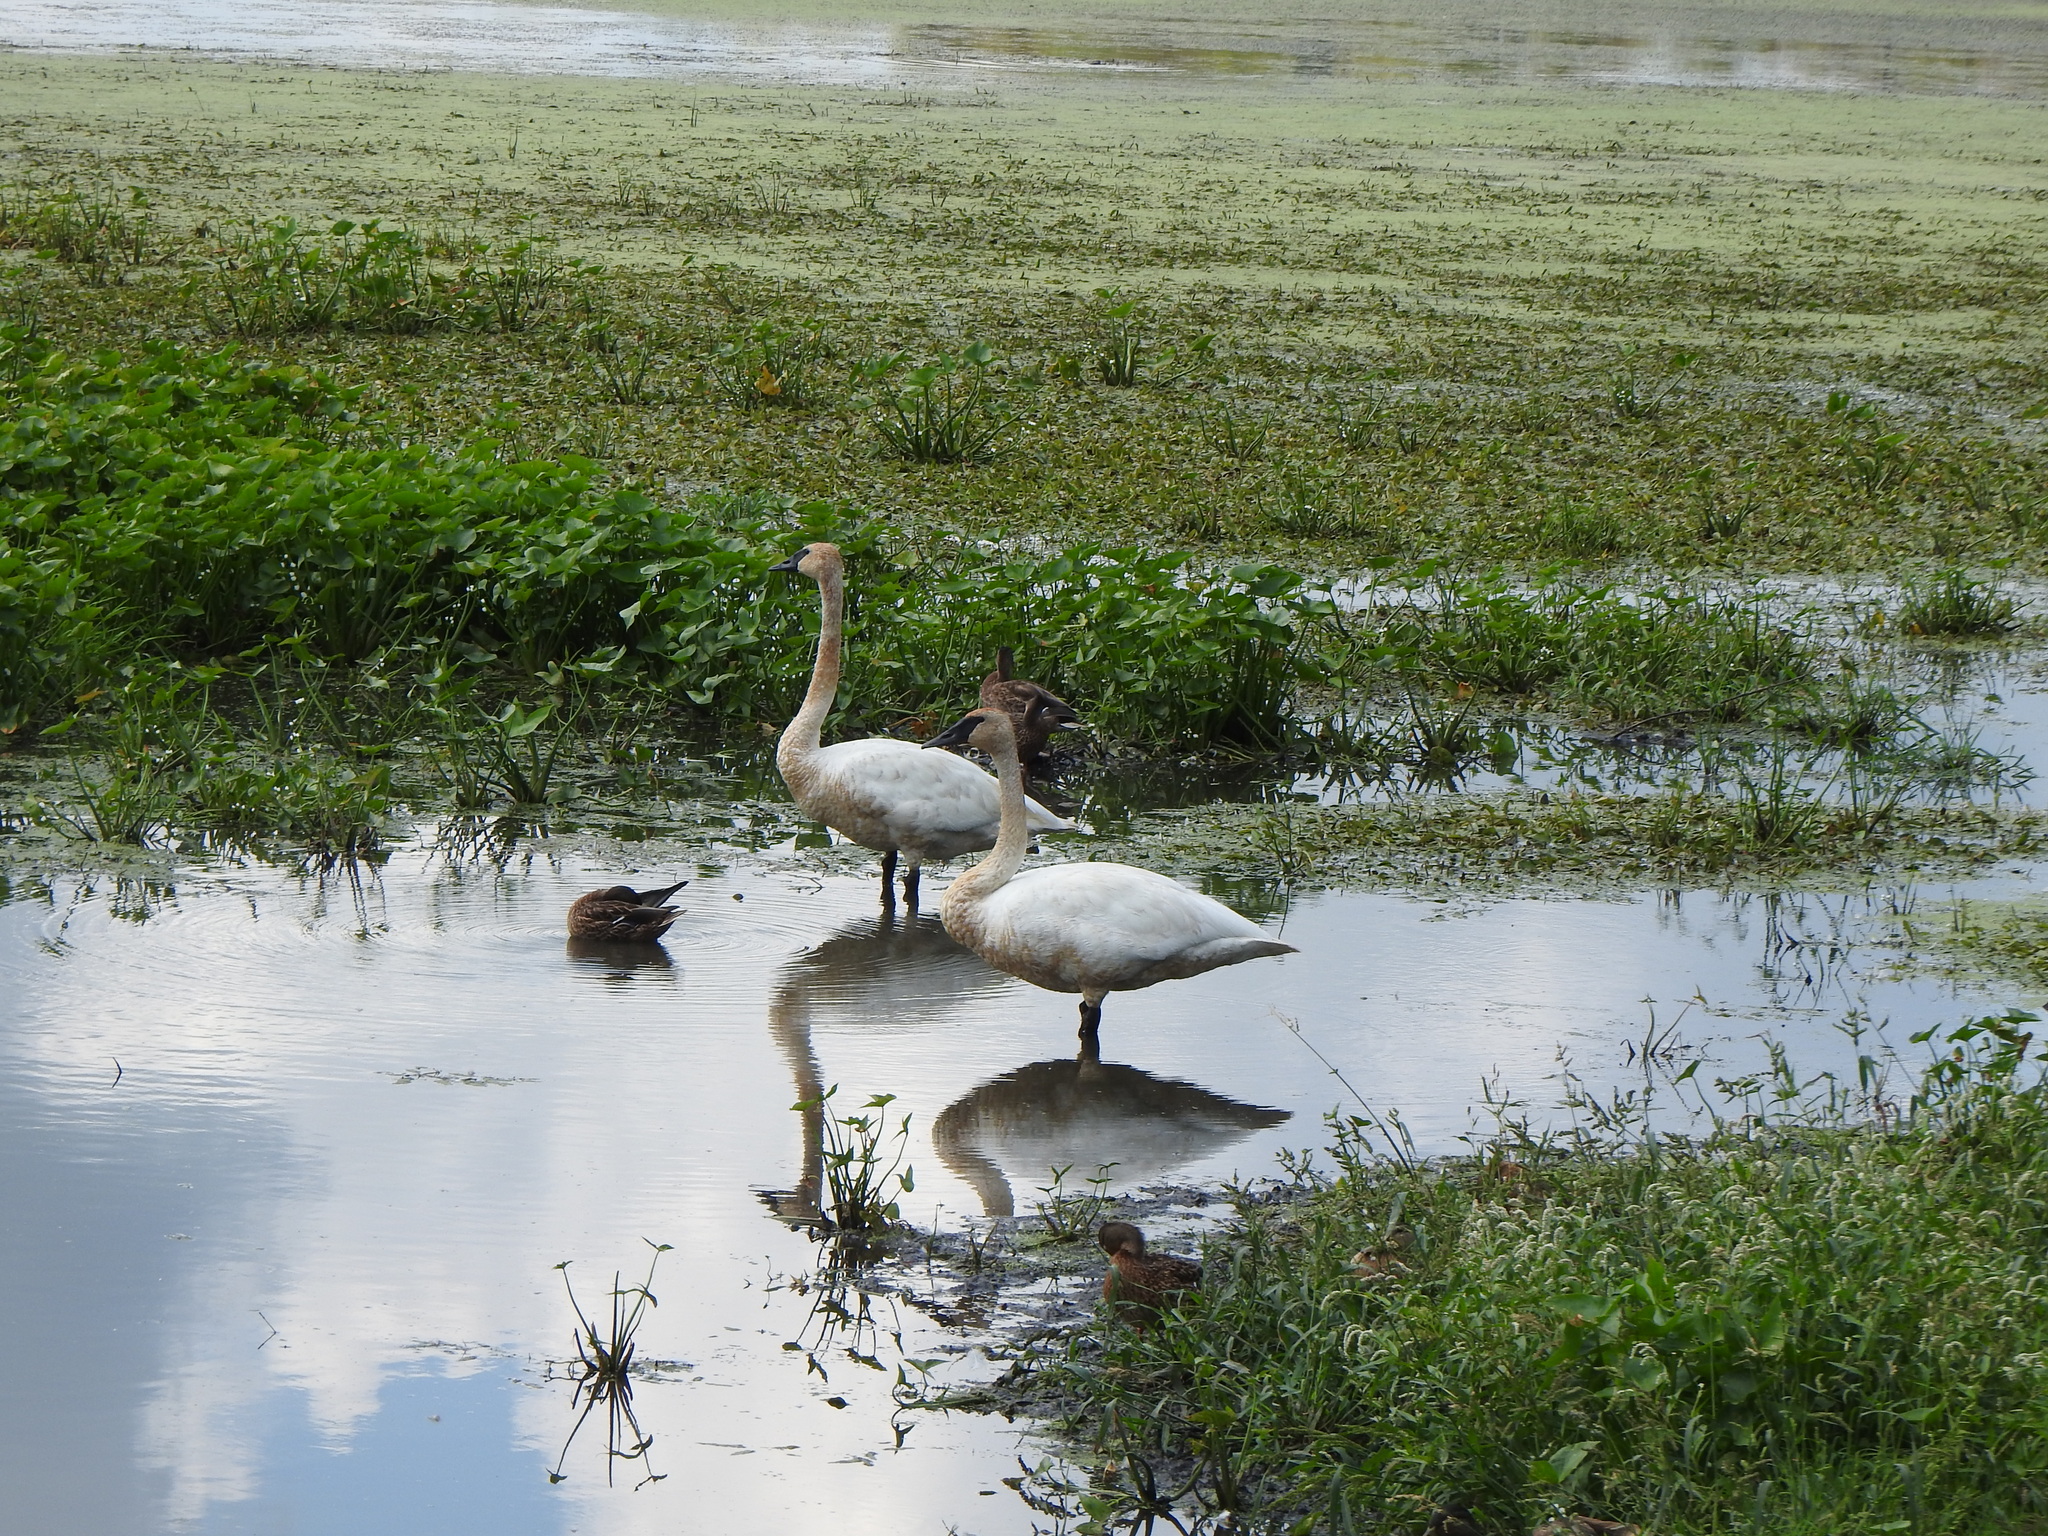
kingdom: Animalia
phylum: Chordata
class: Aves
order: Anseriformes
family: Anatidae
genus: Cygnus
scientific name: Cygnus buccinator
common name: Trumpeter swan
